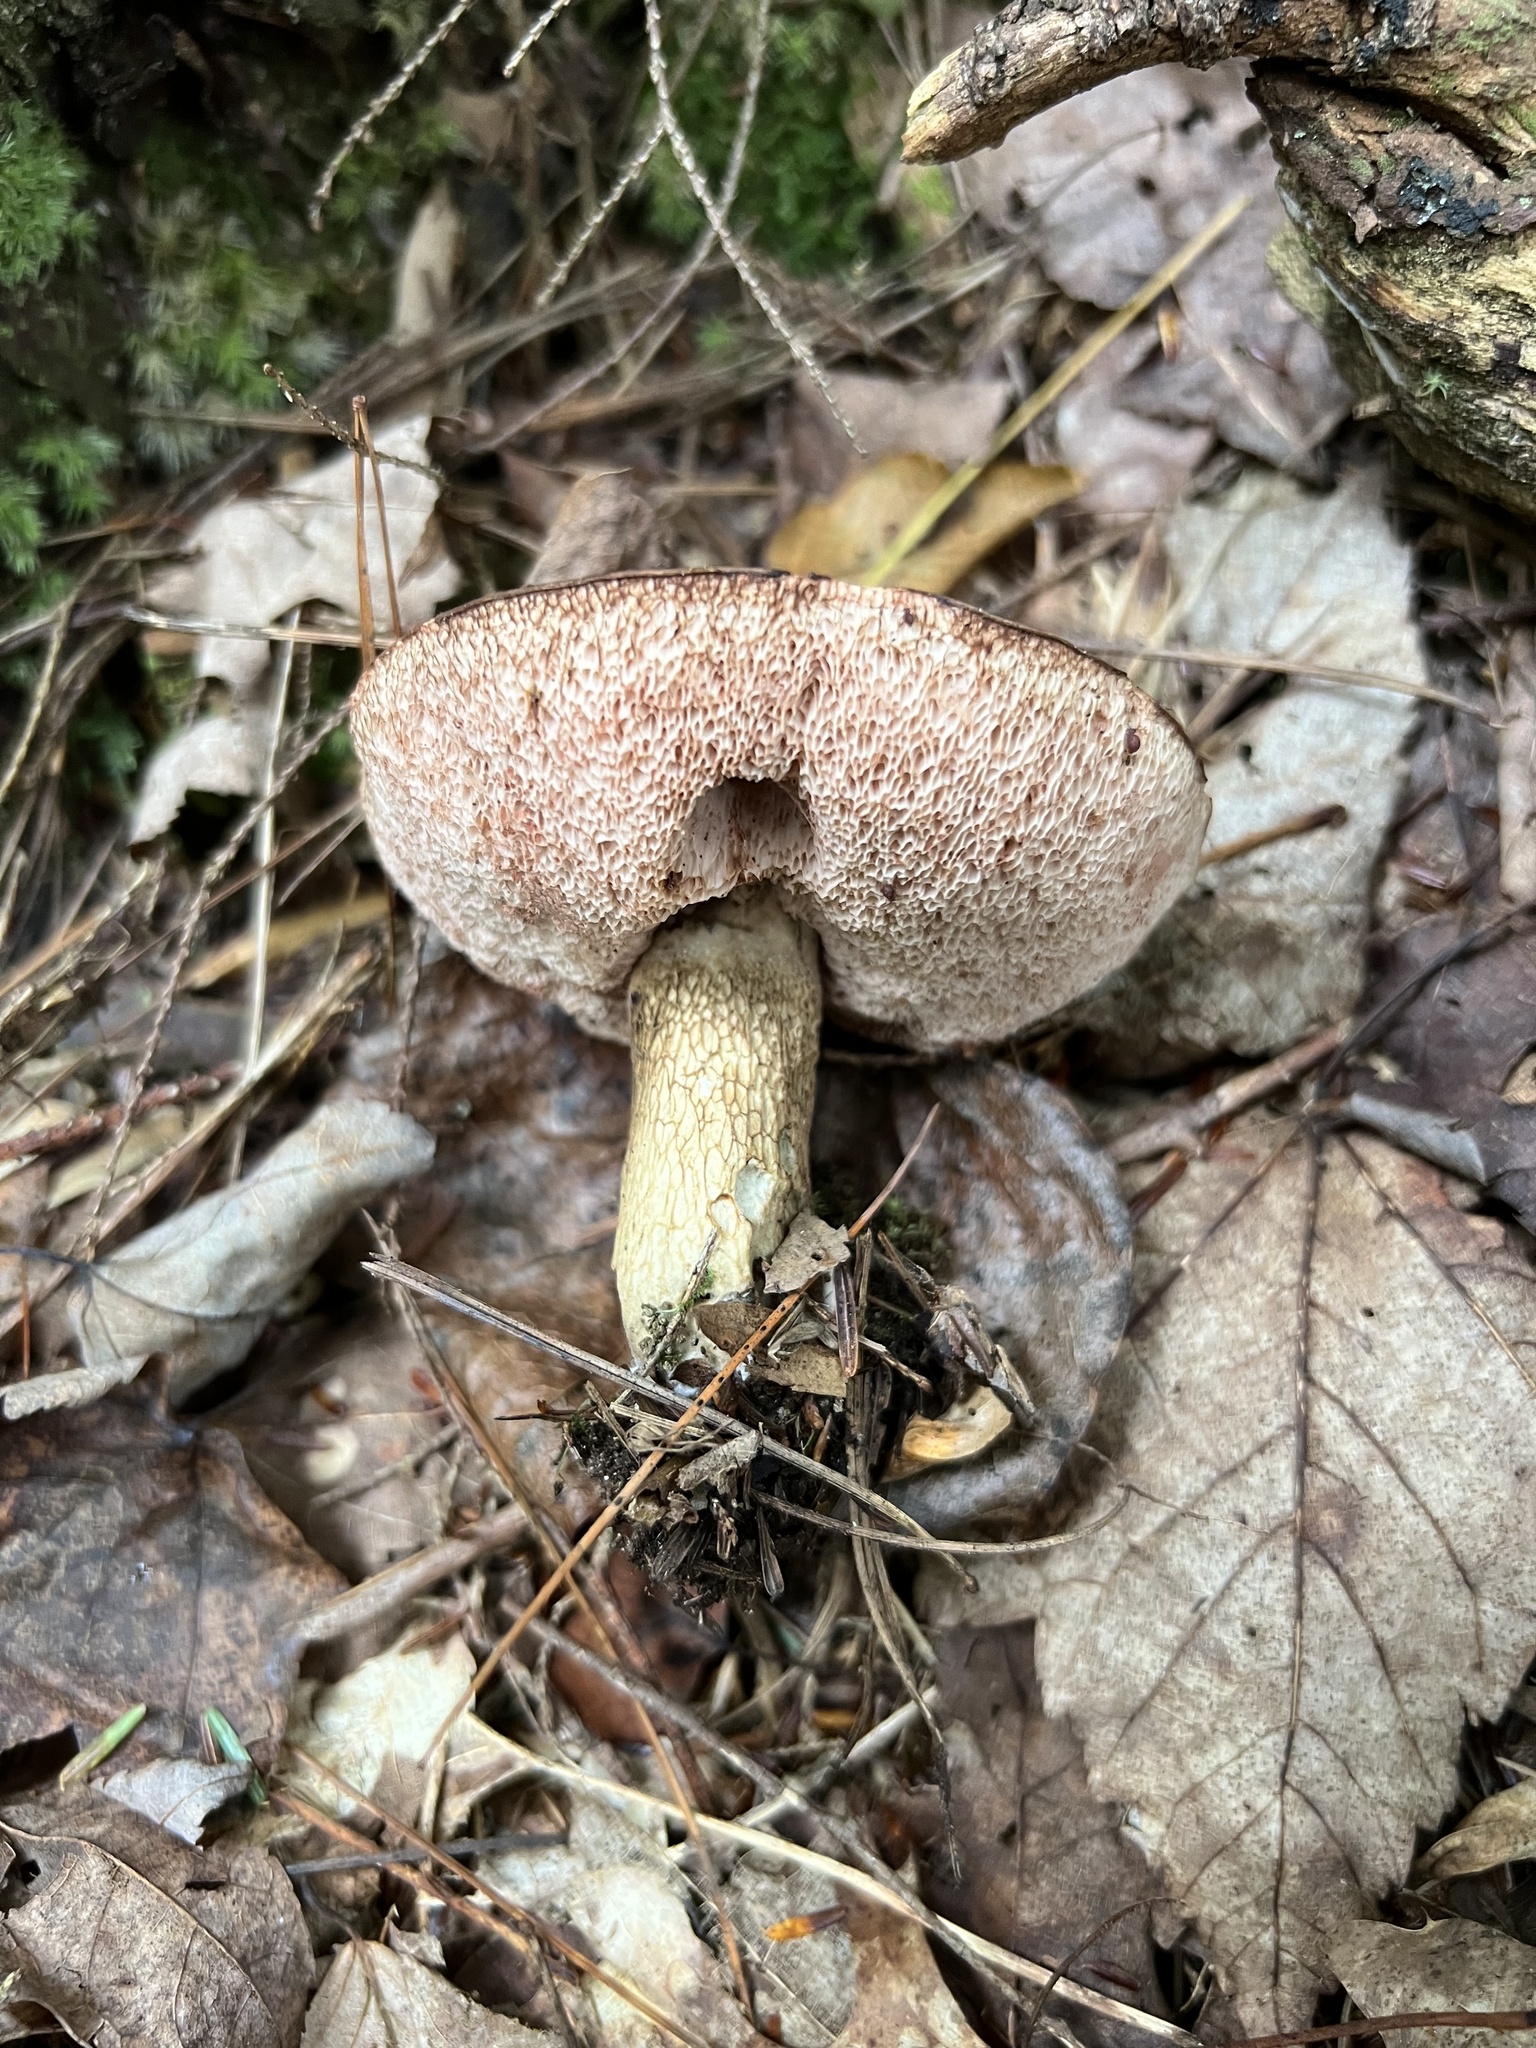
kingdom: Fungi
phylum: Basidiomycota
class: Agaricomycetes
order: Boletales
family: Boletaceae
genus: Tylopilus
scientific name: Tylopilus felleus
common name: Bitter bolete
